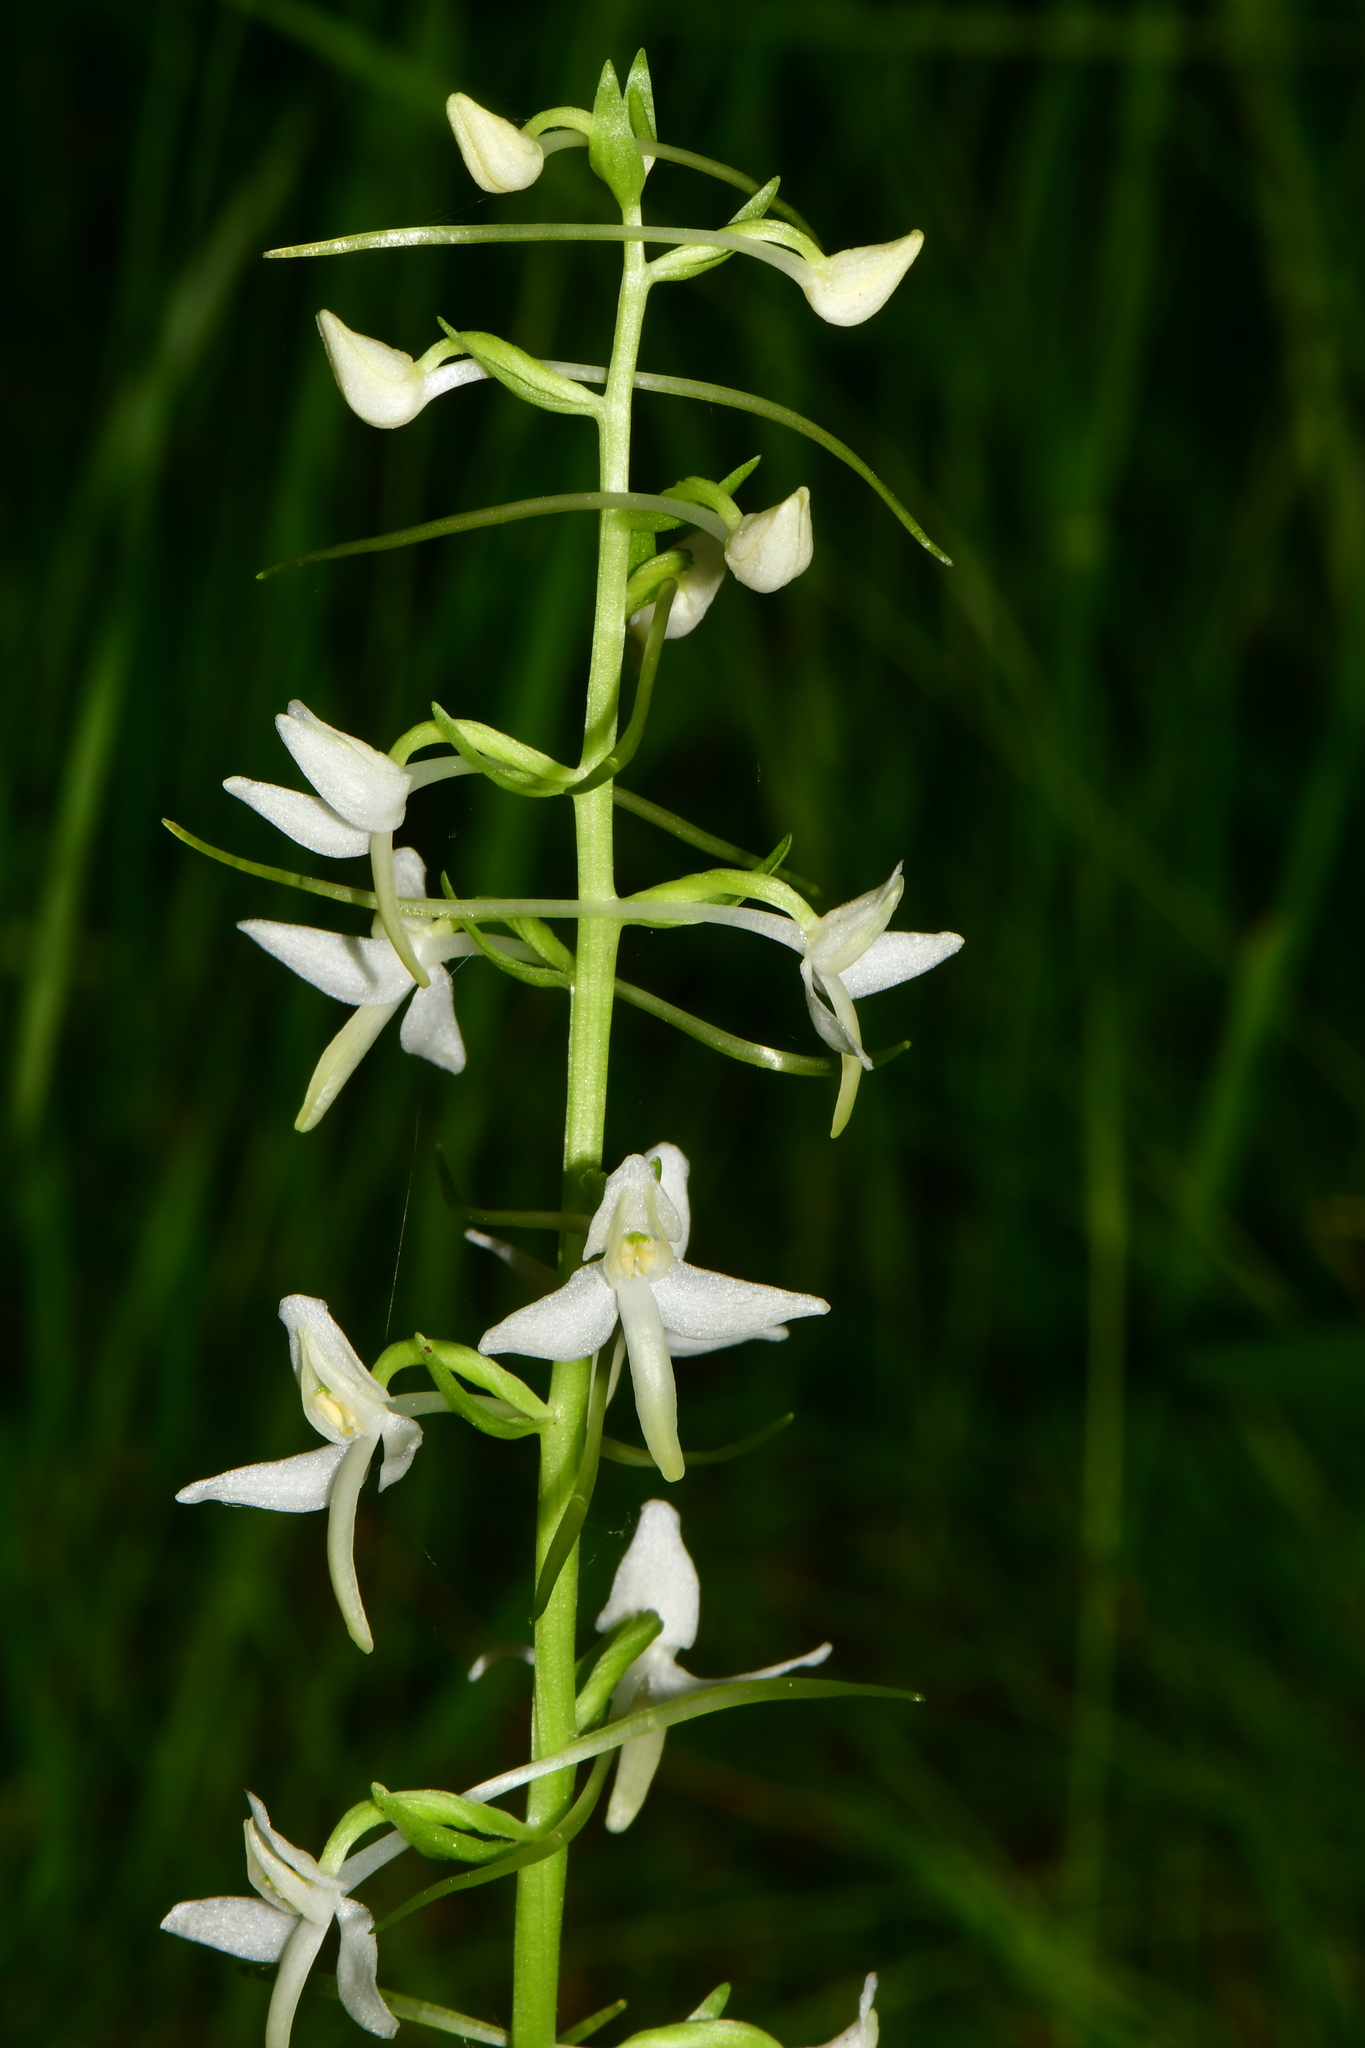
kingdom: Plantae
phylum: Tracheophyta
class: Liliopsida
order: Asparagales
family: Orchidaceae
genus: Platanthera
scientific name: Platanthera bifolia
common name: Lesser butterfly-orchid
